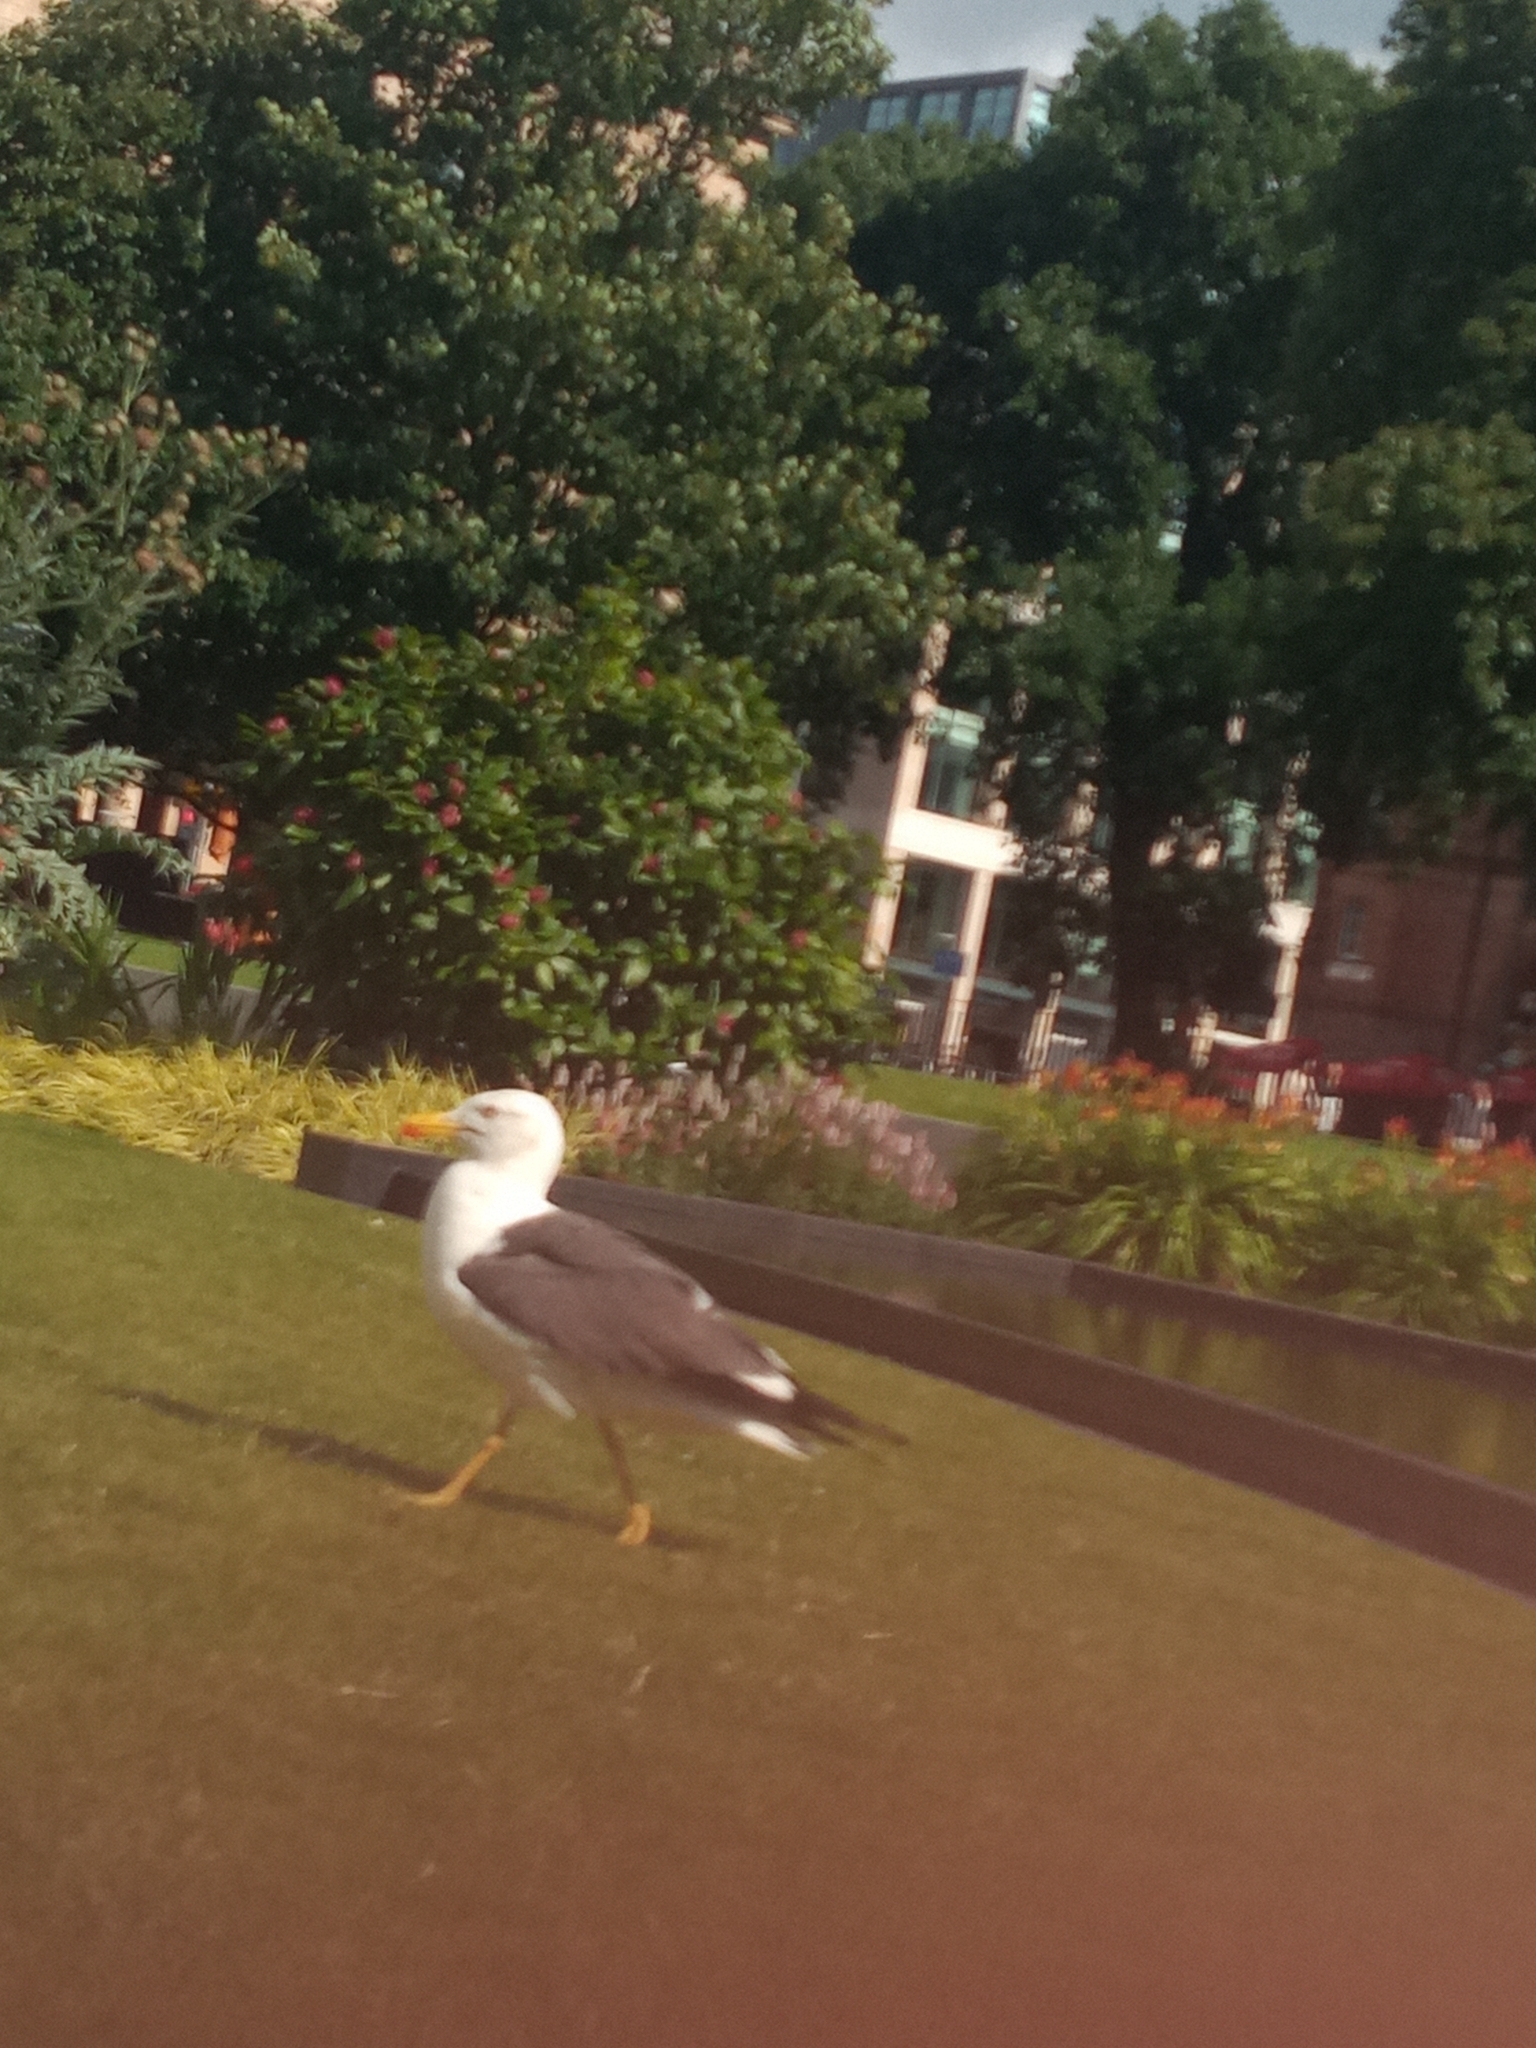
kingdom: Animalia
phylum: Chordata
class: Aves
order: Charadriiformes
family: Laridae
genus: Larus
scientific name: Larus fuscus
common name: Lesser black-backed gull
